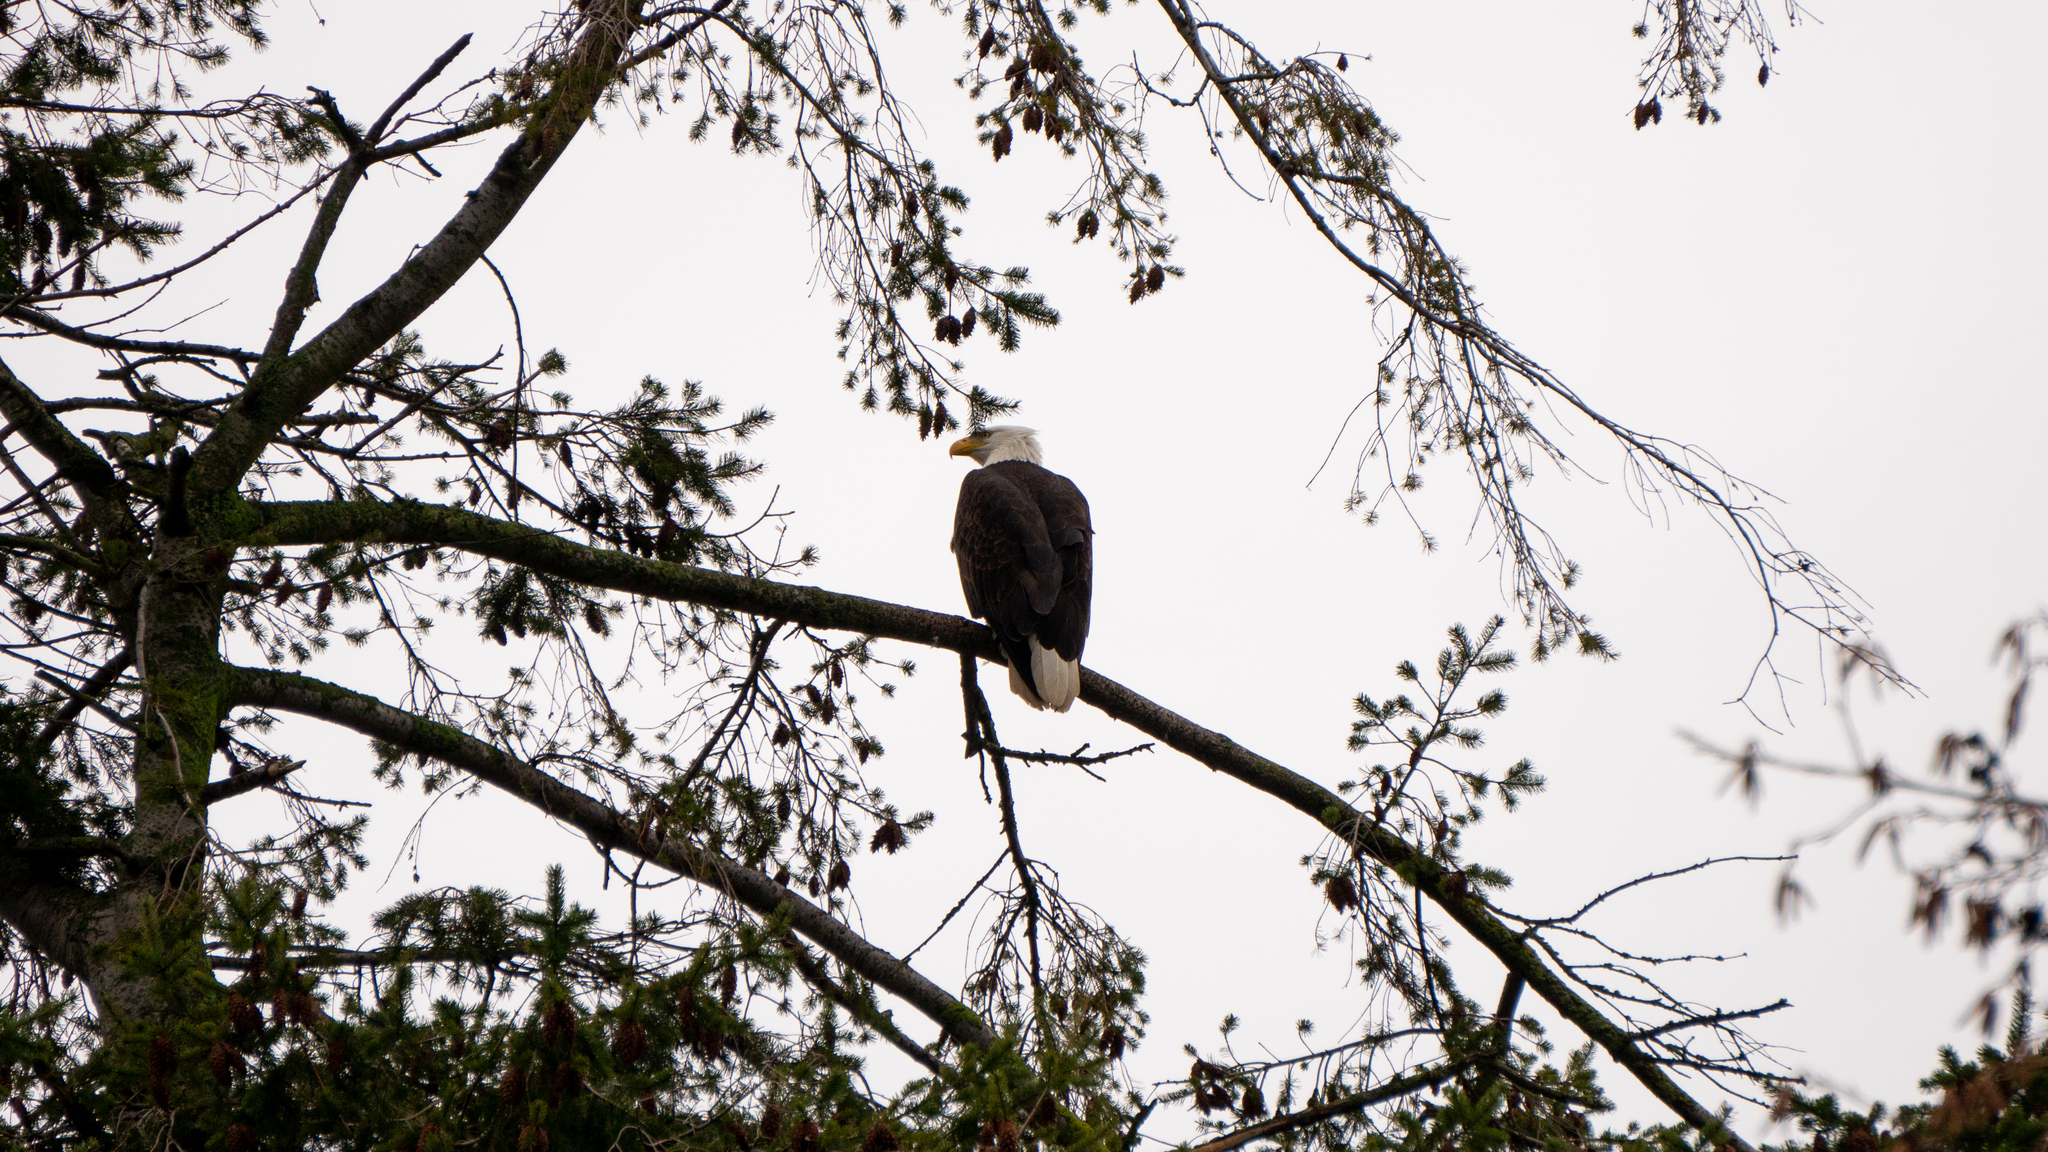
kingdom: Animalia
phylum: Chordata
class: Aves
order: Accipitriformes
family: Accipitridae
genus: Haliaeetus
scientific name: Haliaeetus leucocephalus
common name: Bald eagle
